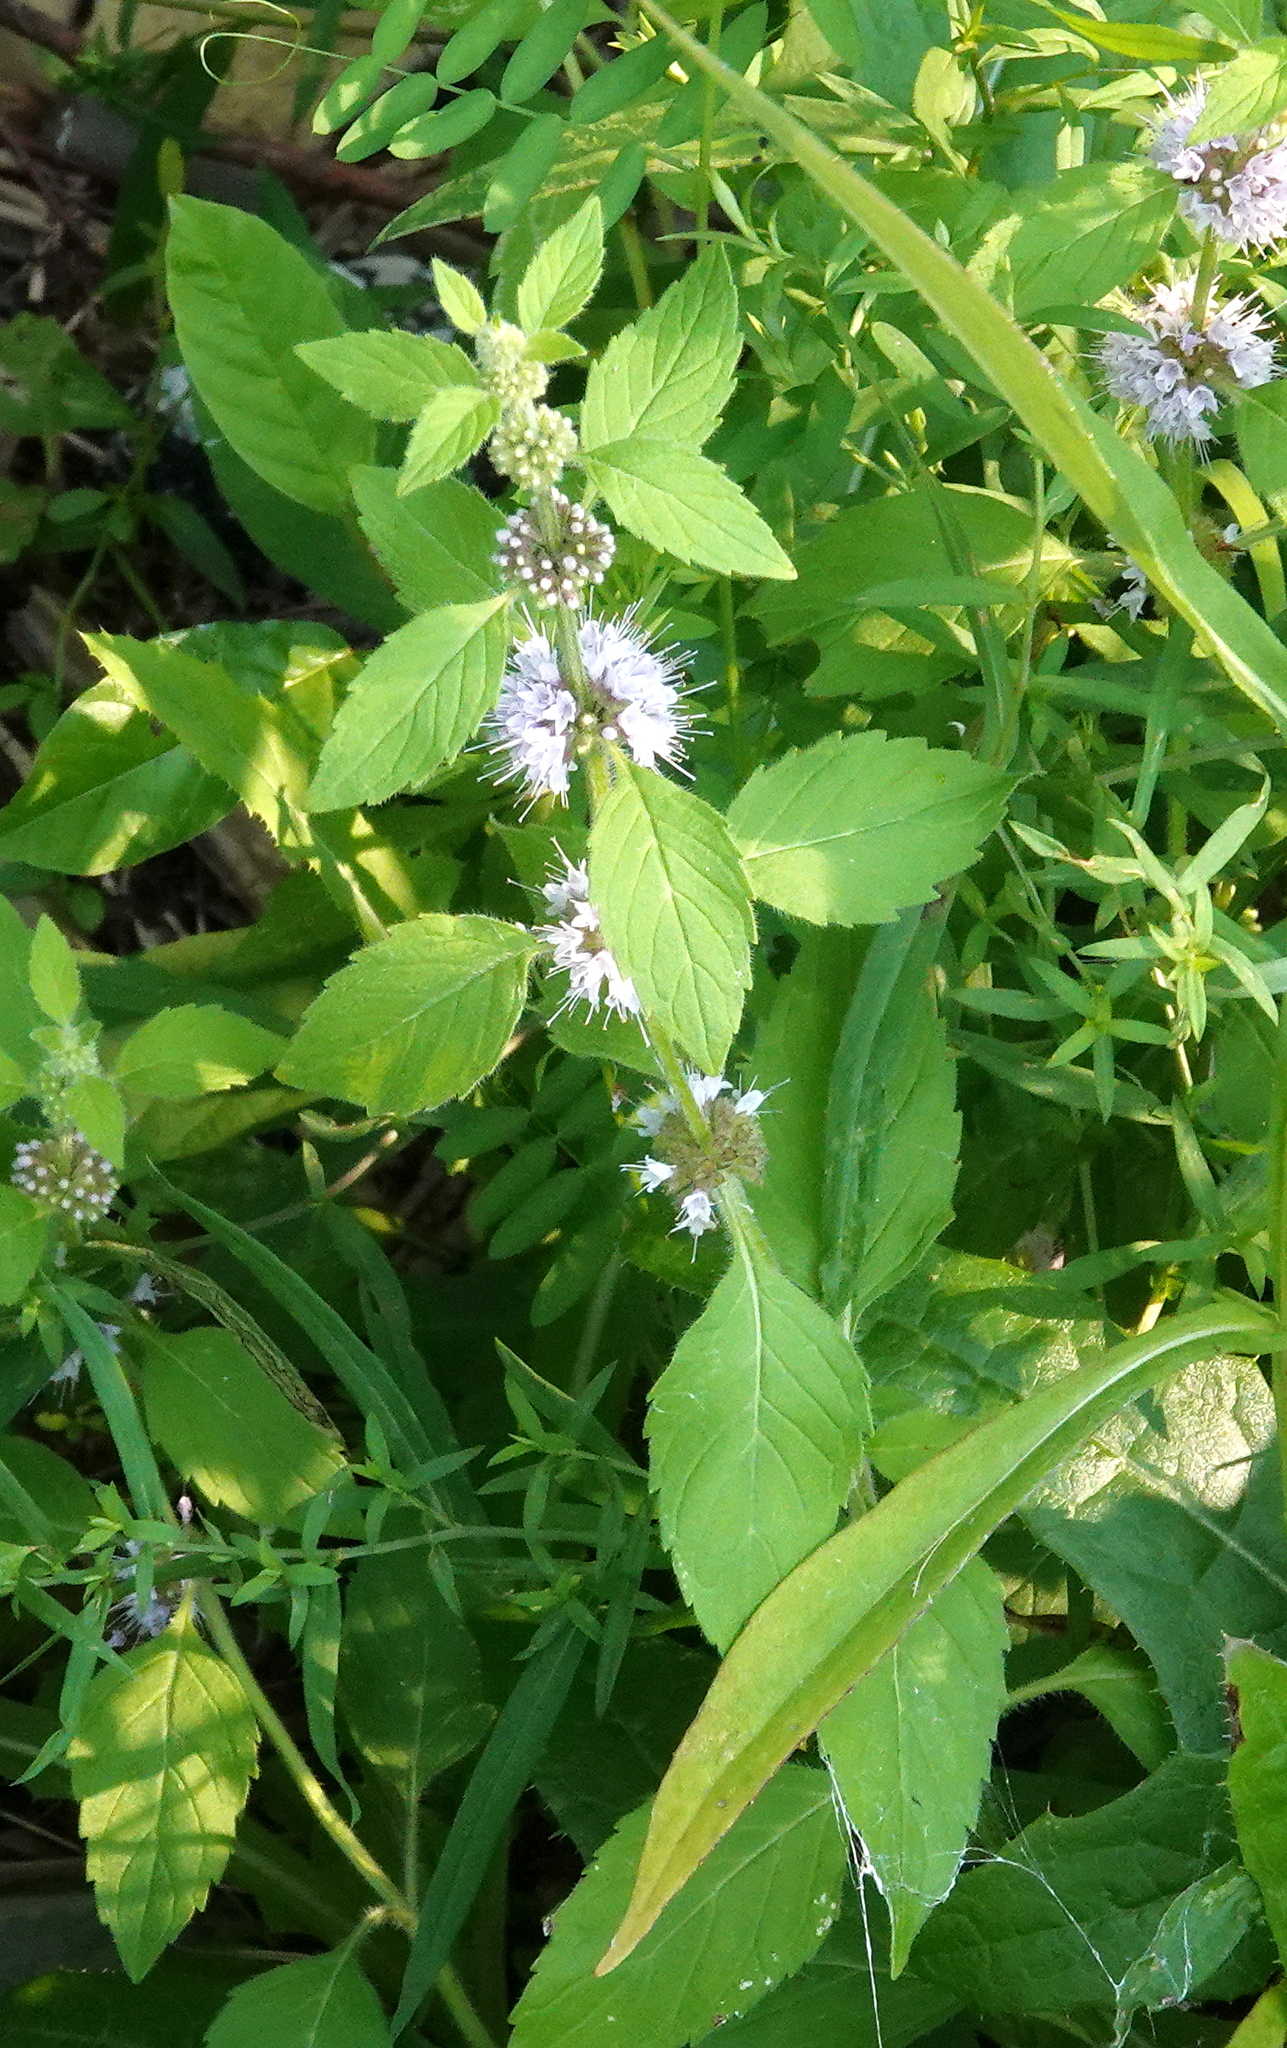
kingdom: Plantae
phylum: Tracheophyta
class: Magnoliopsida
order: Lamiales
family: Lamiaceae
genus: Mentha
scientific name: Mentha canadensis
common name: American corn mint
